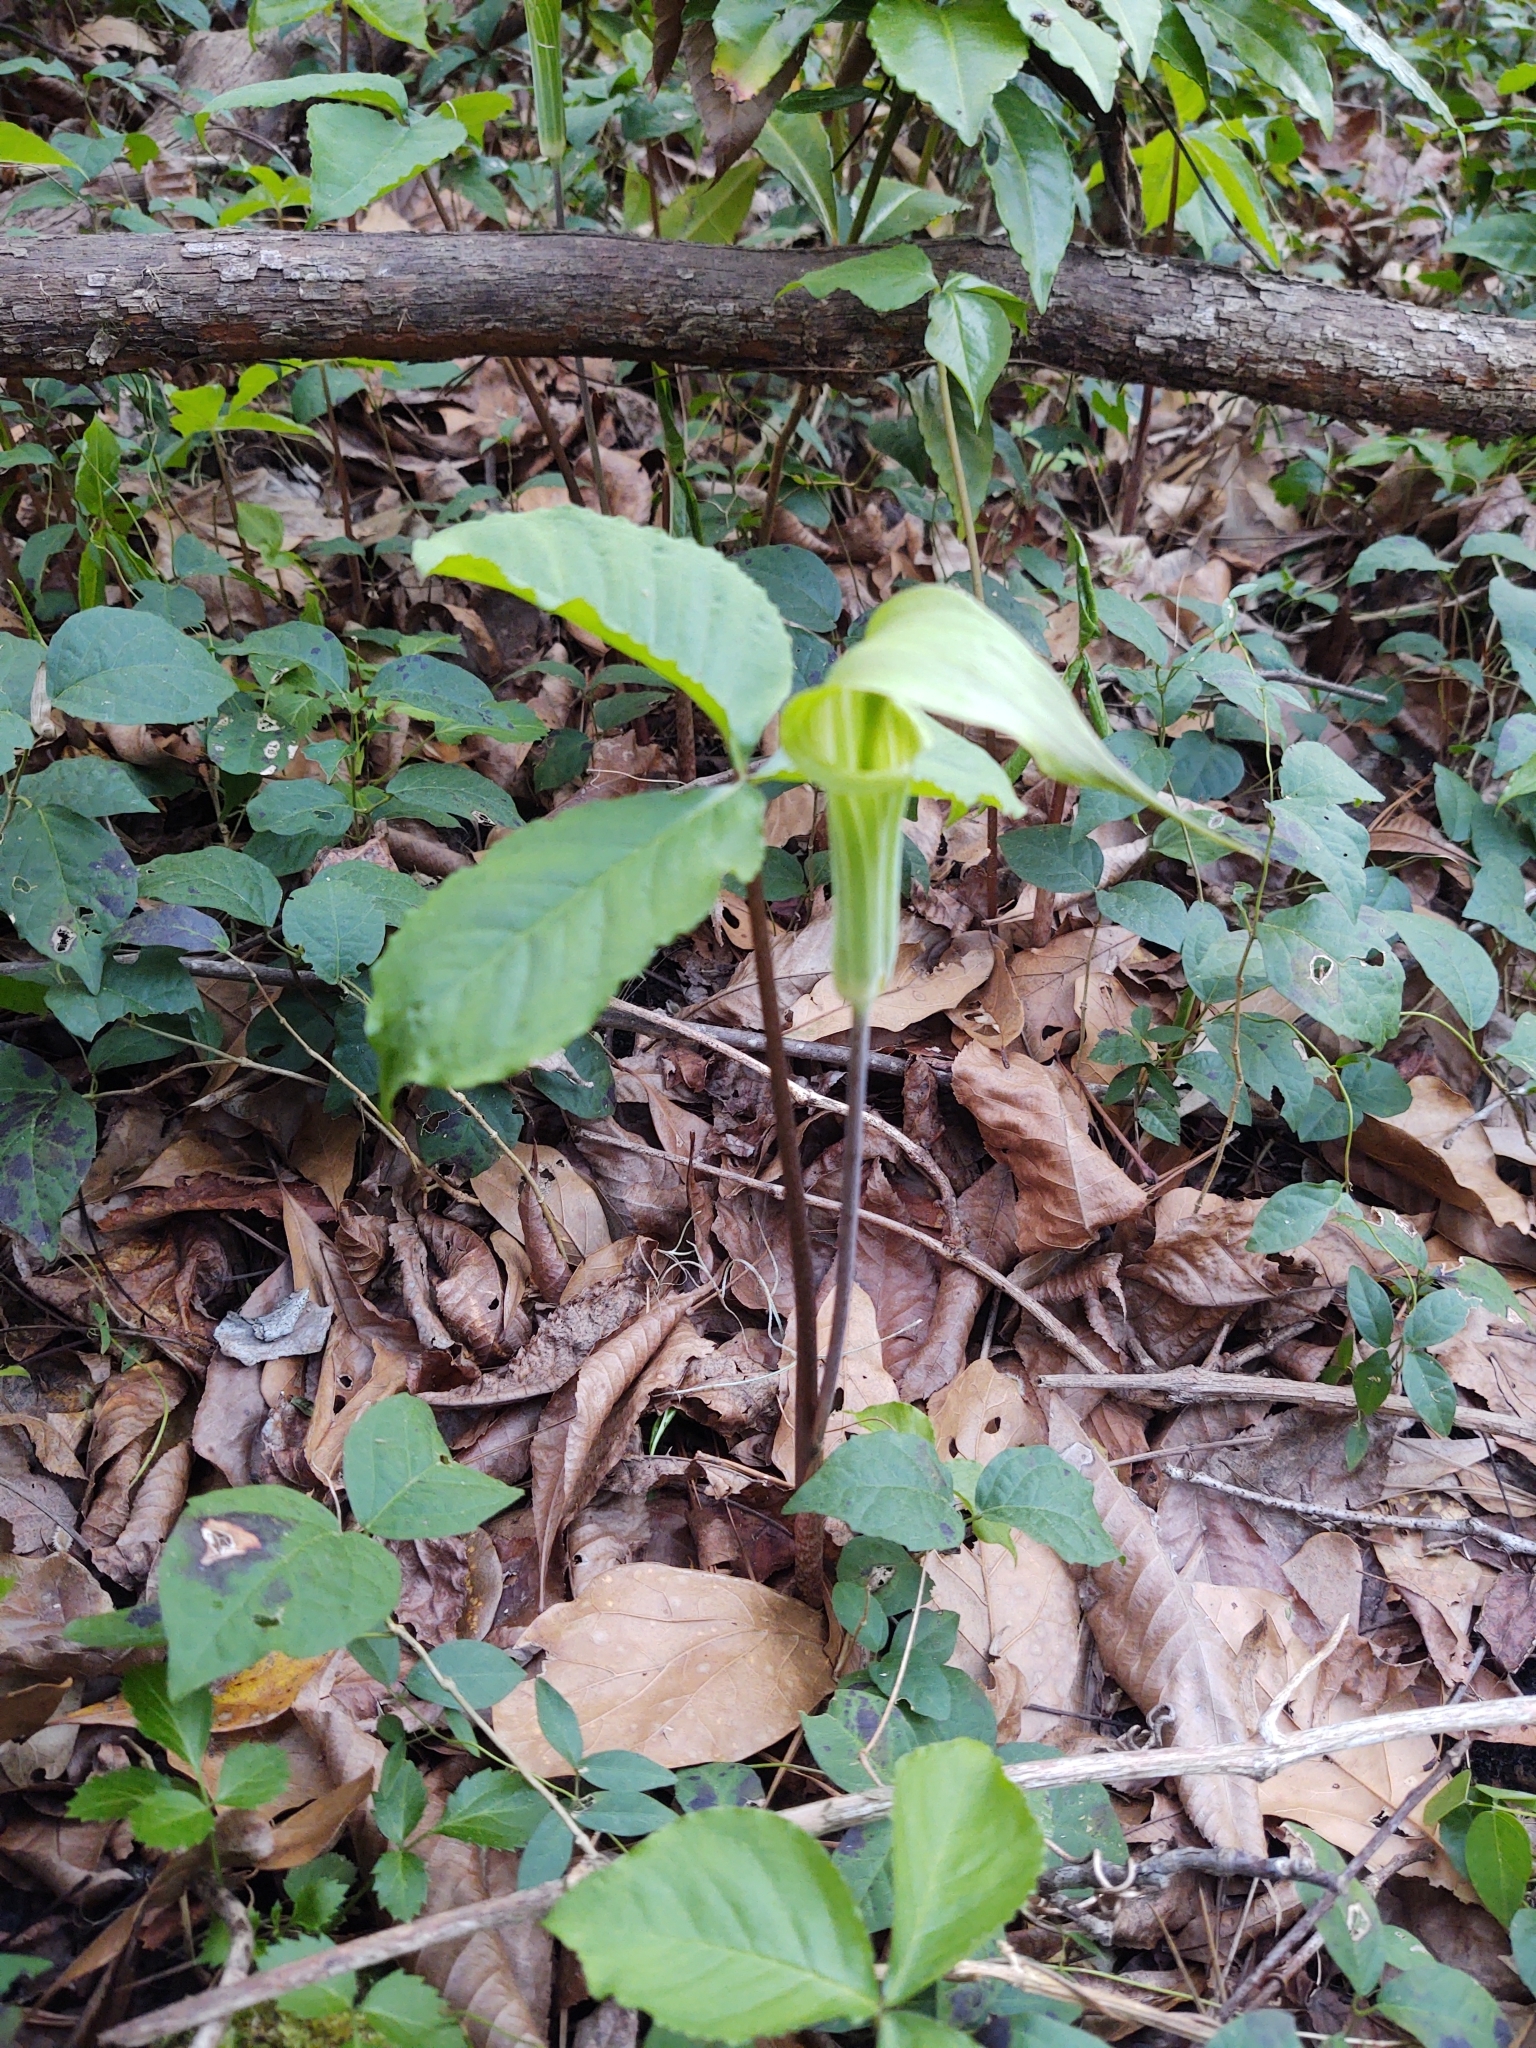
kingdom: Plantae
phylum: Tracheophyta
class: Liliopsida
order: Alismatales
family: Araceae
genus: Arisaema
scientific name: Arisaema acuminatum
